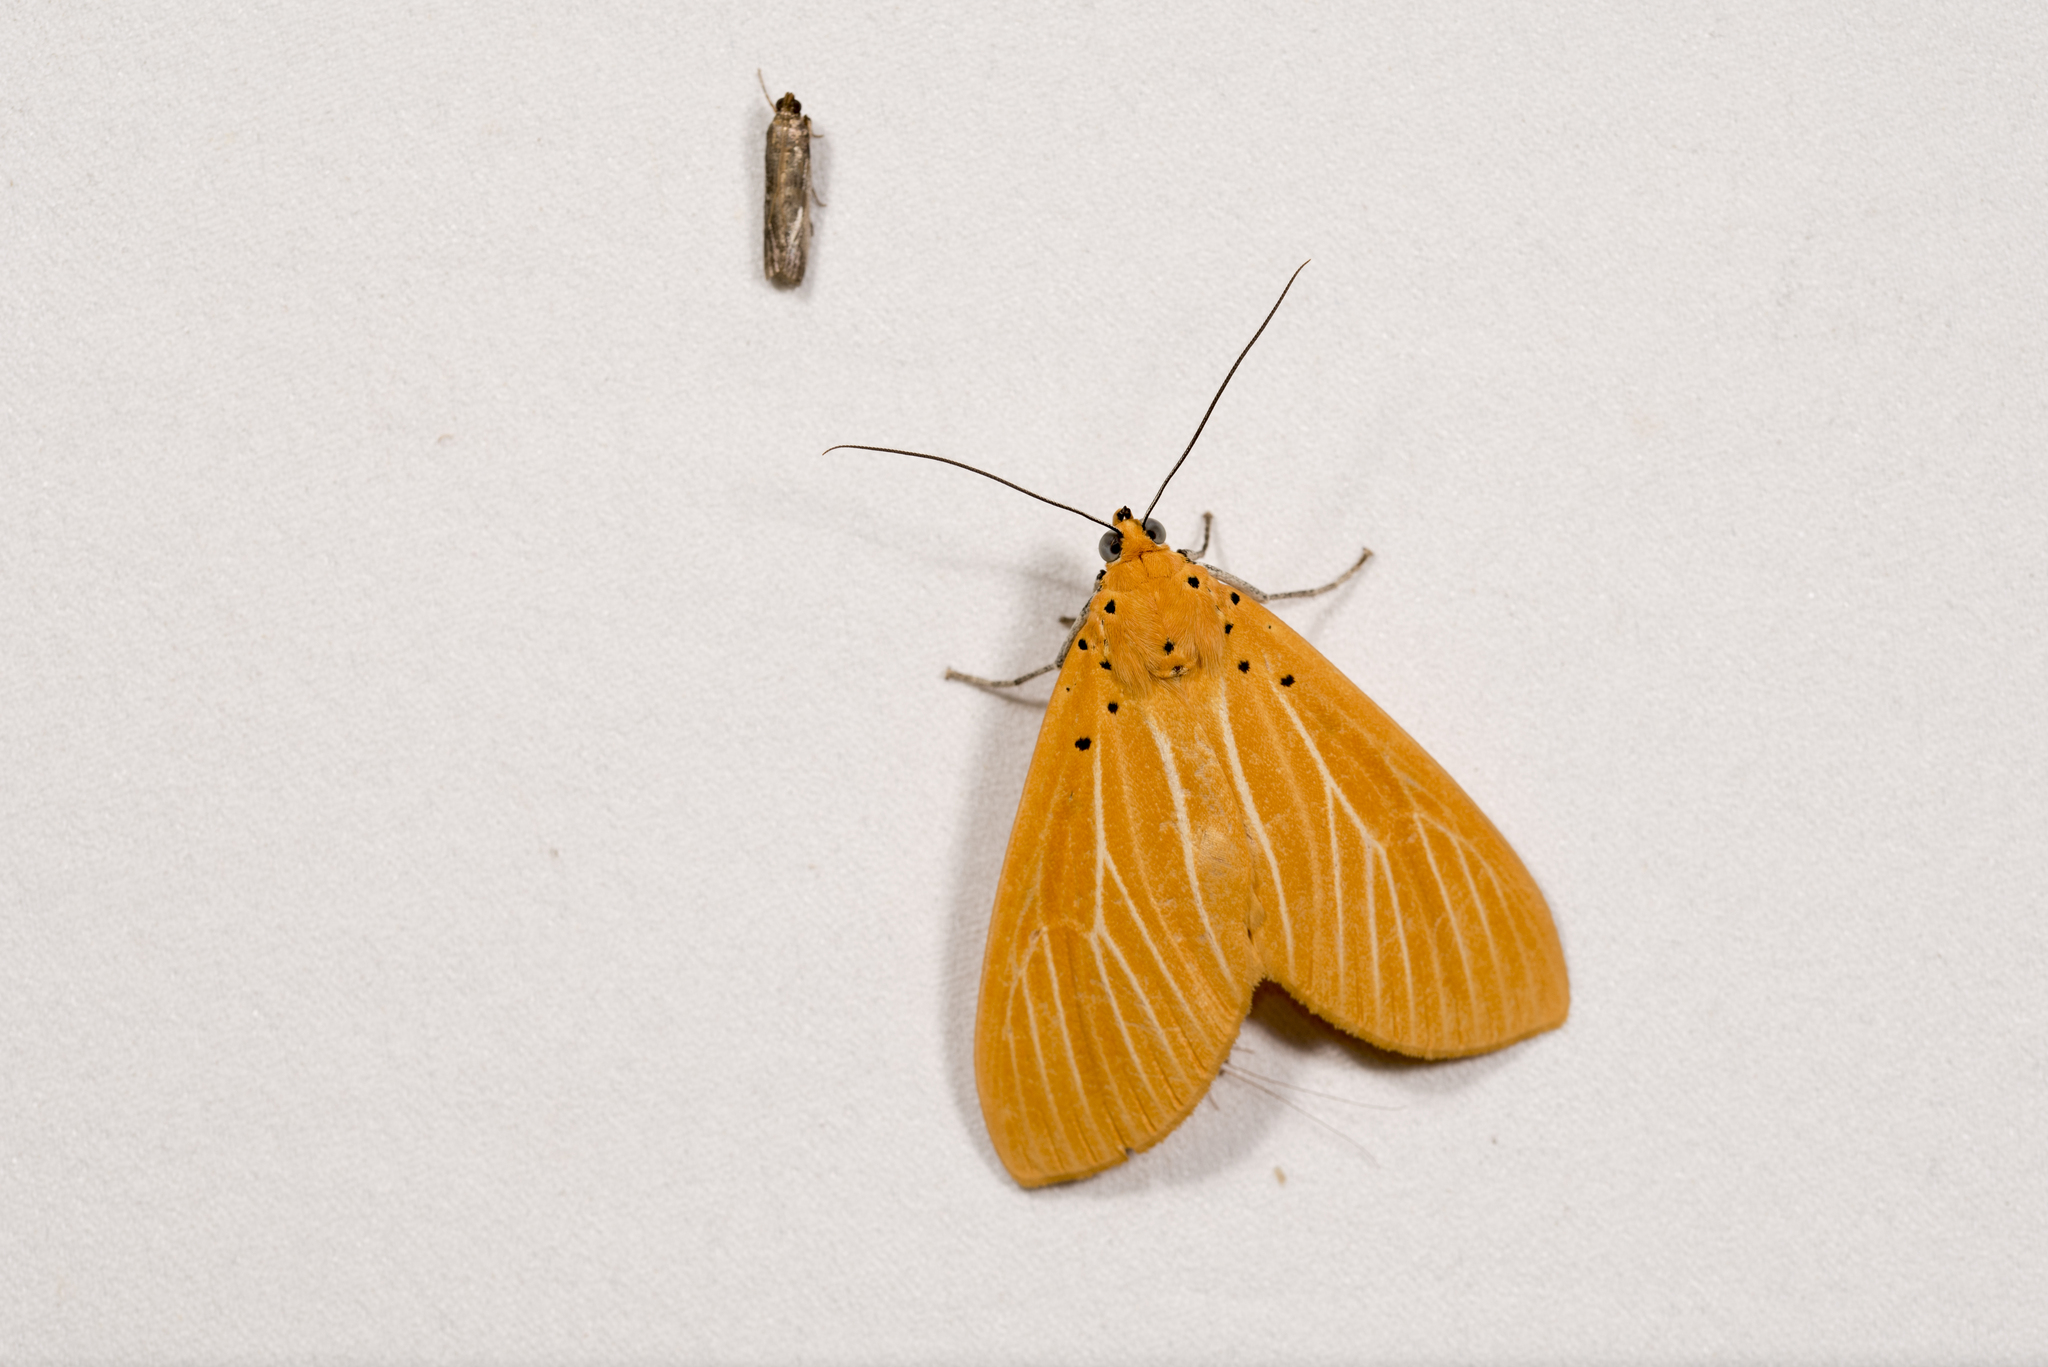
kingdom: Animalia
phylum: Arthropoda
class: Insecta
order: Lepidoptera
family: Erebidae
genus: Asota
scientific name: Asota egens
